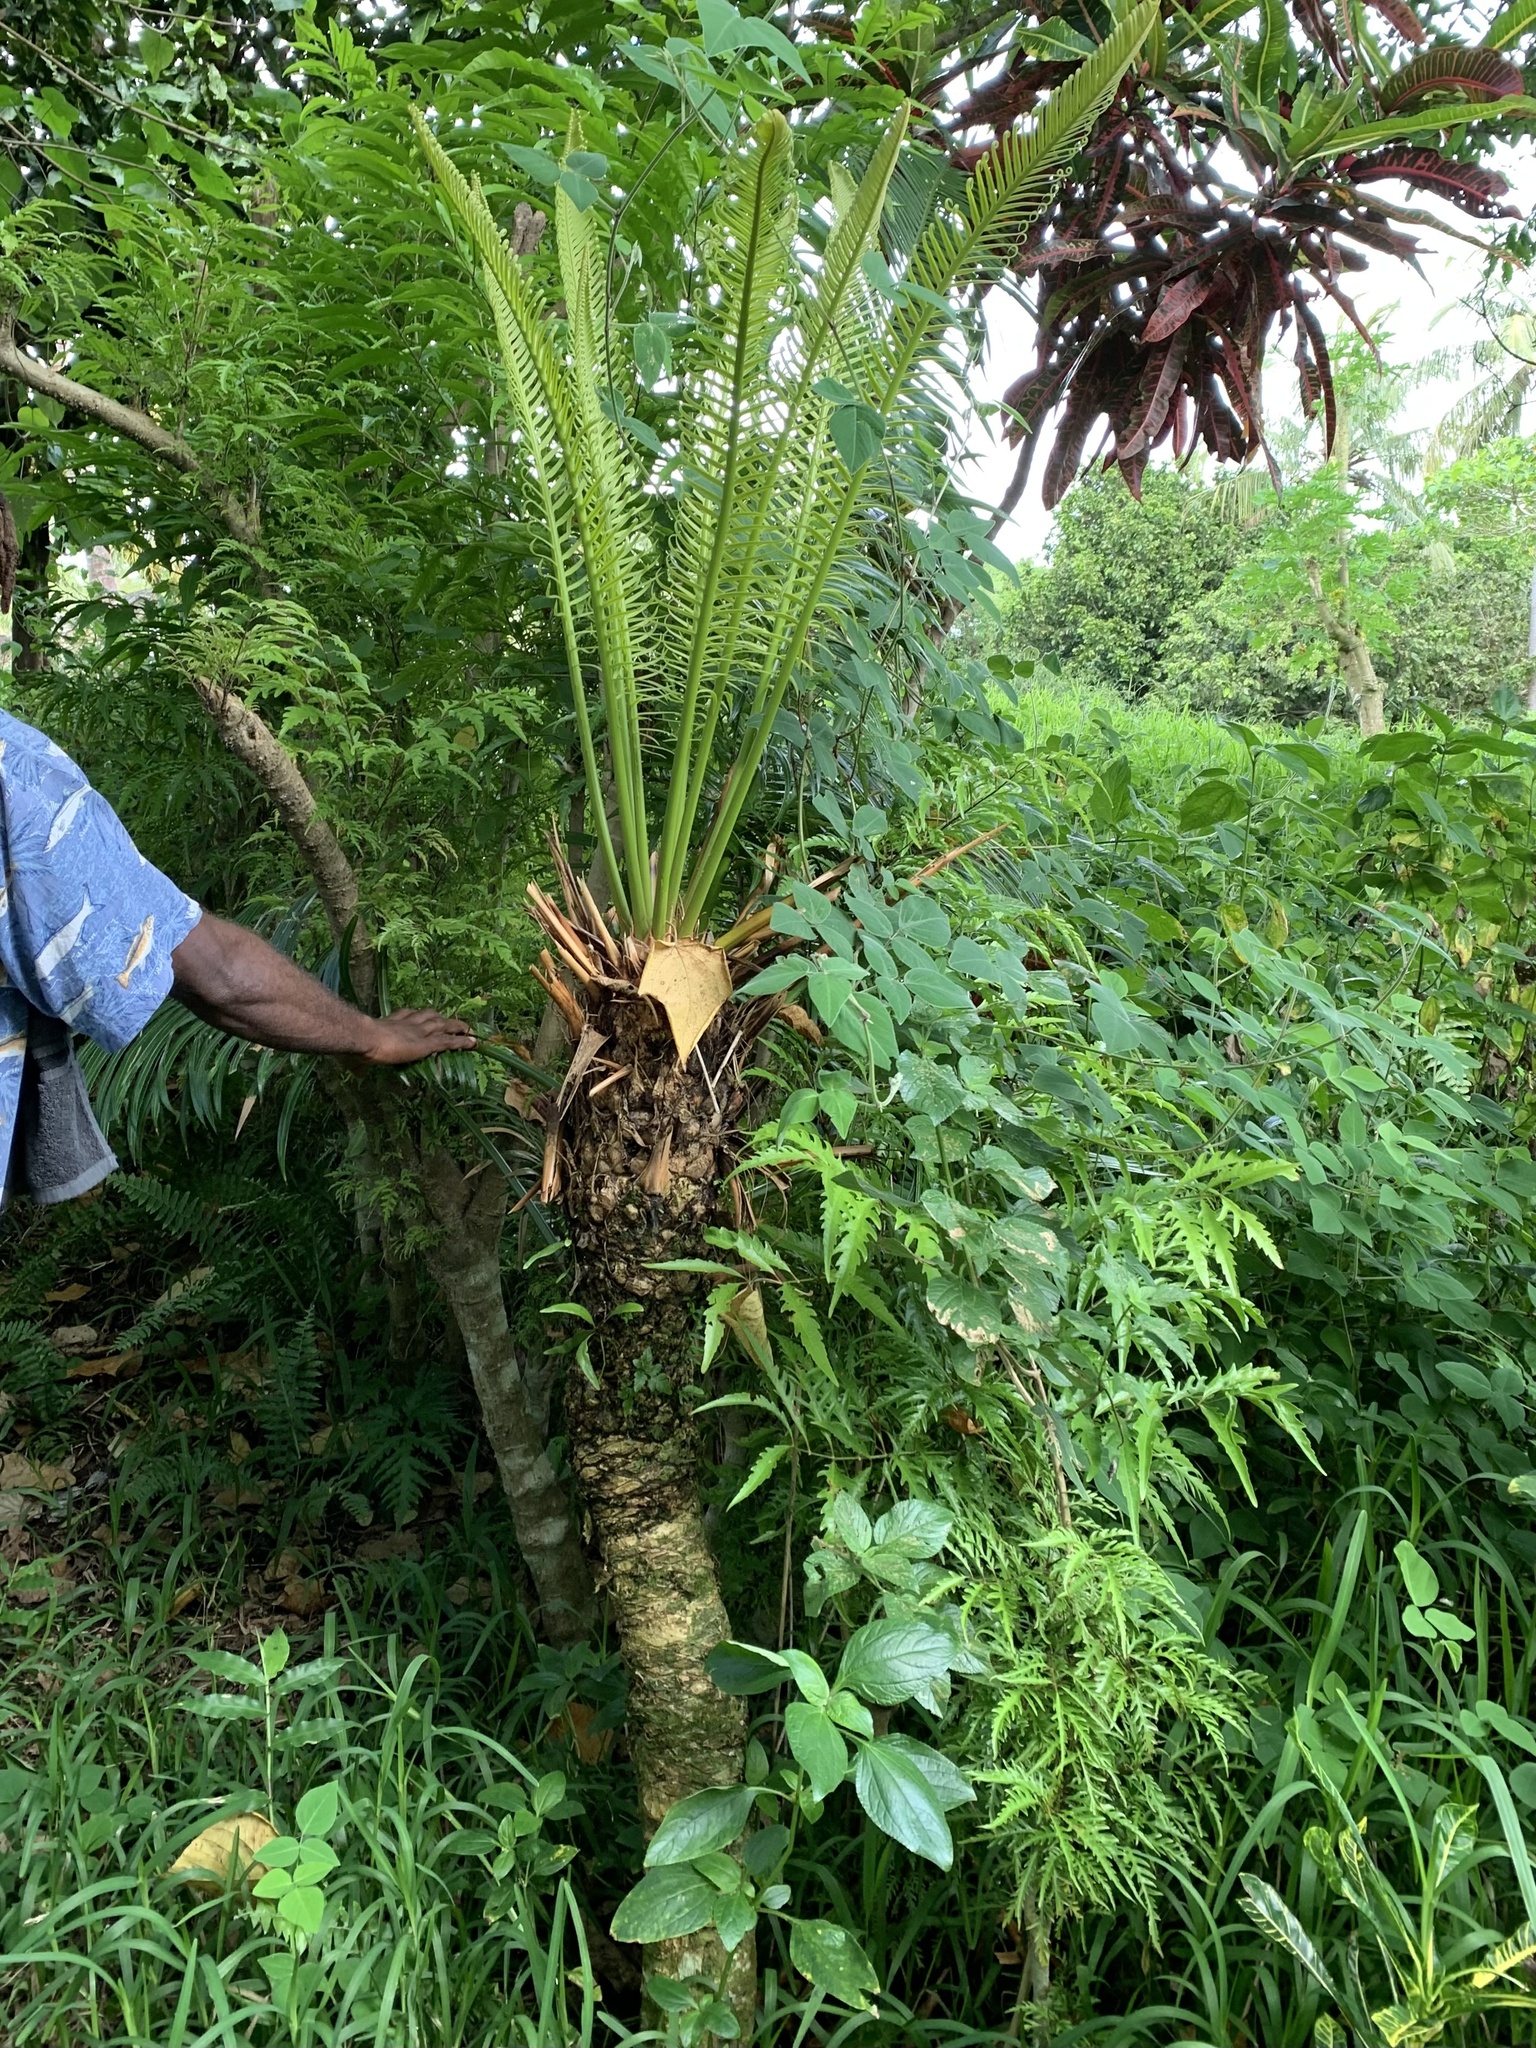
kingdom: Plantae
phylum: Tracheophyta
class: Cycadopsida
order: Cycadales
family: Cycadaceae
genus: Cycas
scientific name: Cycas seemannii
